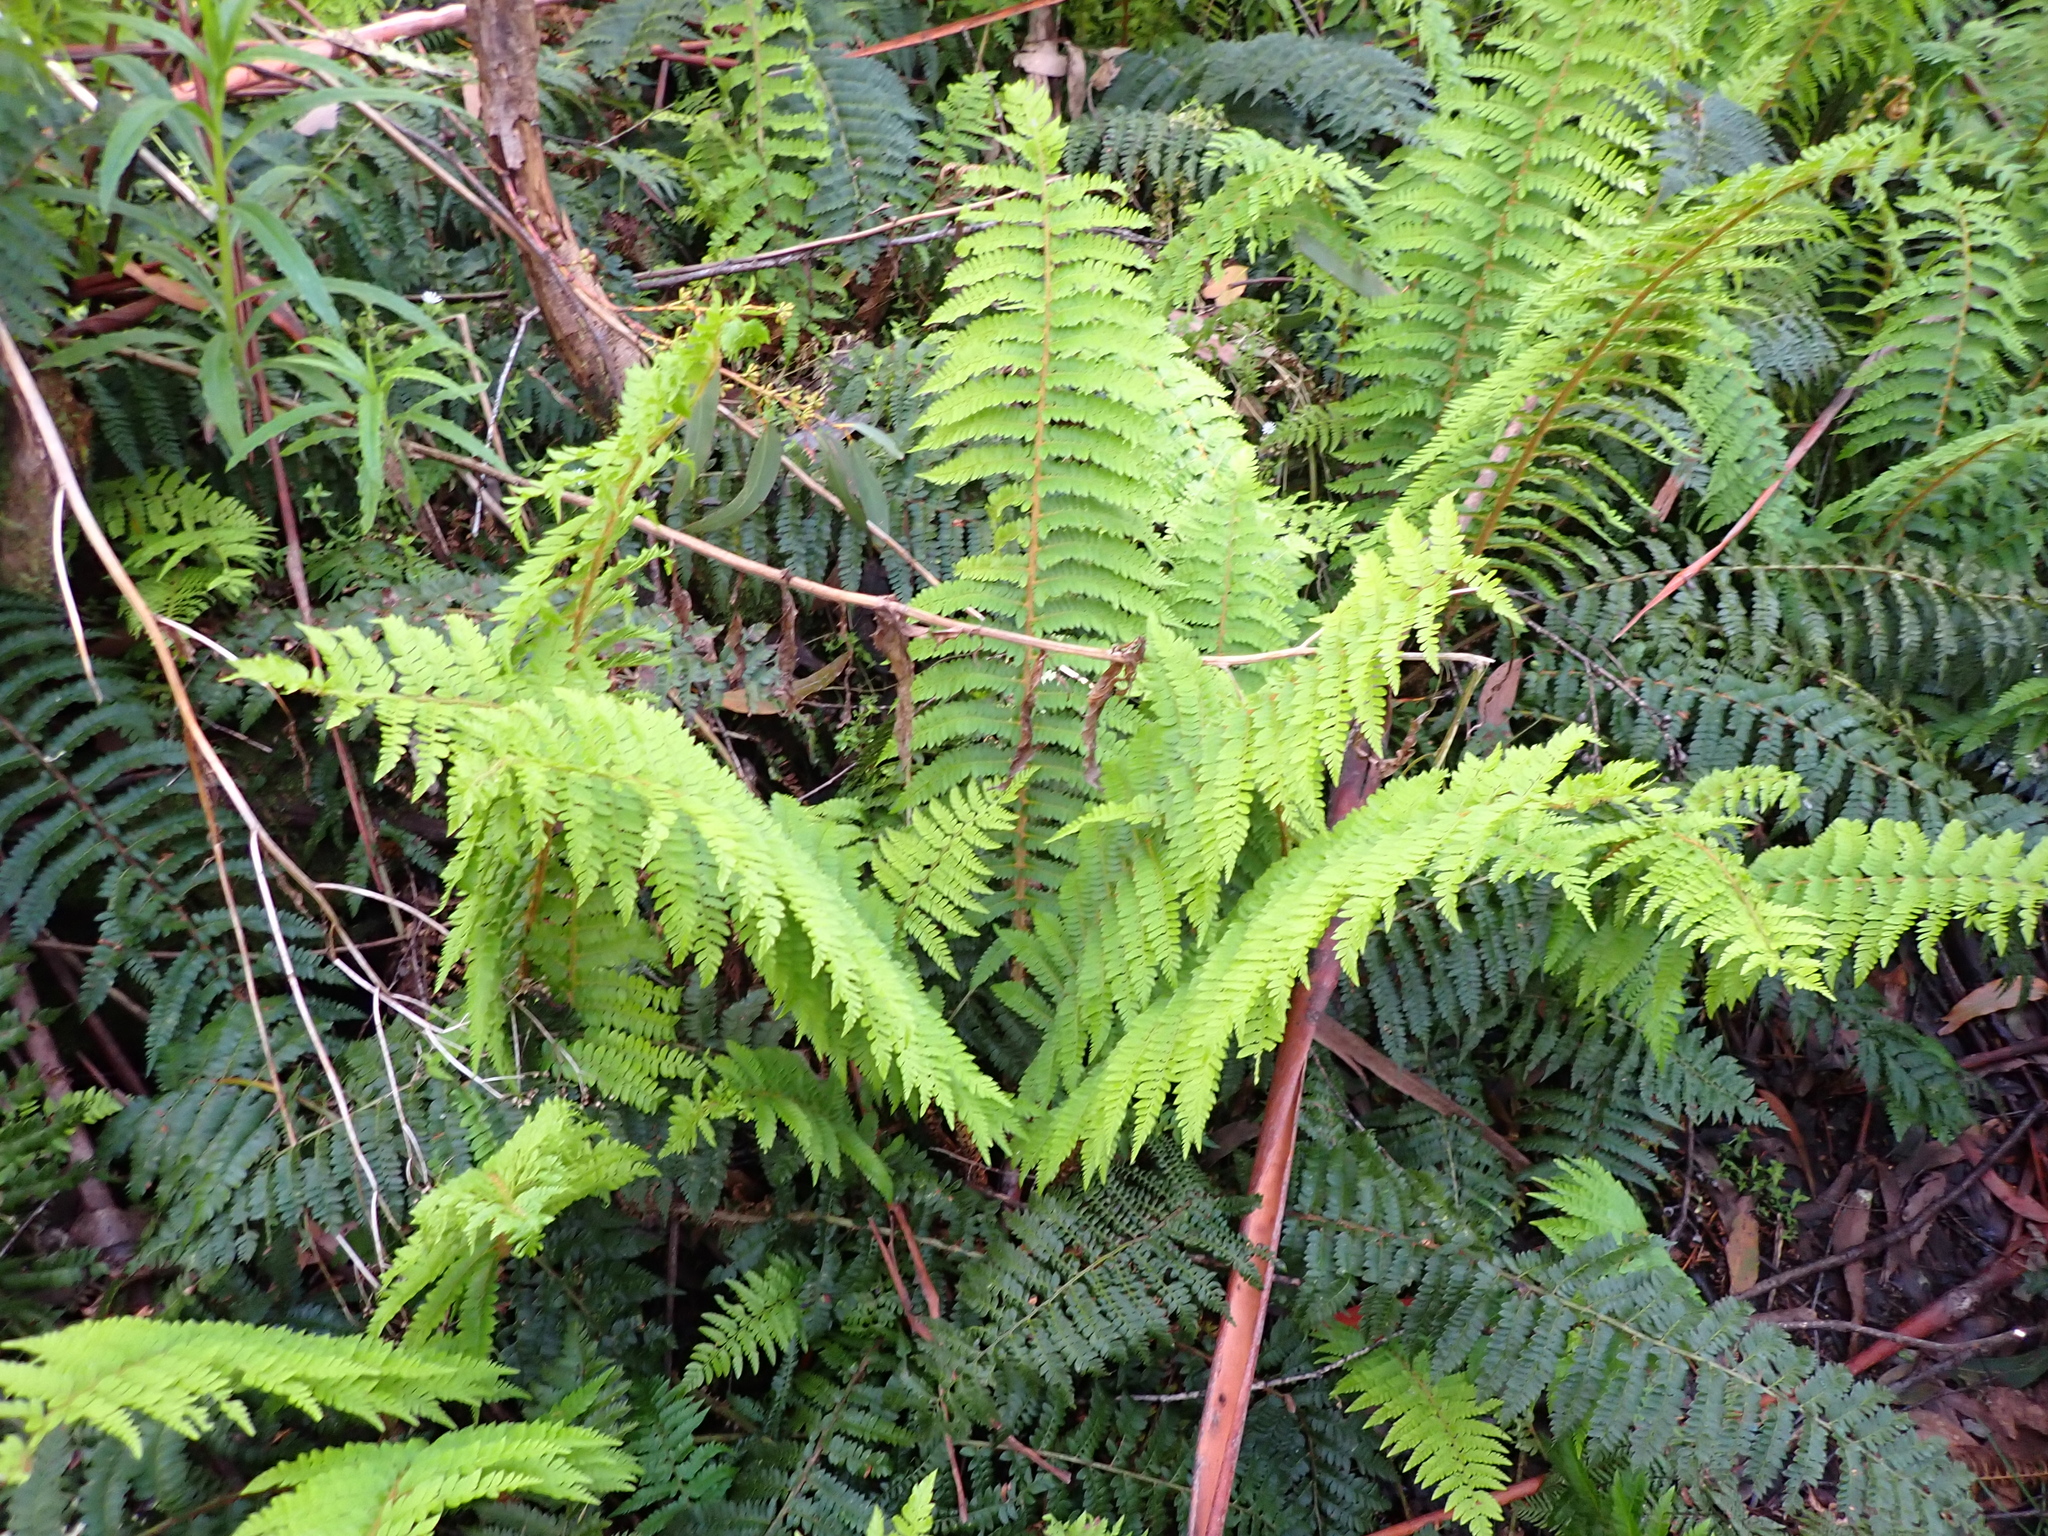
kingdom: Plantae
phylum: Tracheophyta
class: Polypodiopsida
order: Polypodiales
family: Dryopteridaceae
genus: Polystichum
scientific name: Polystichum proliferum
